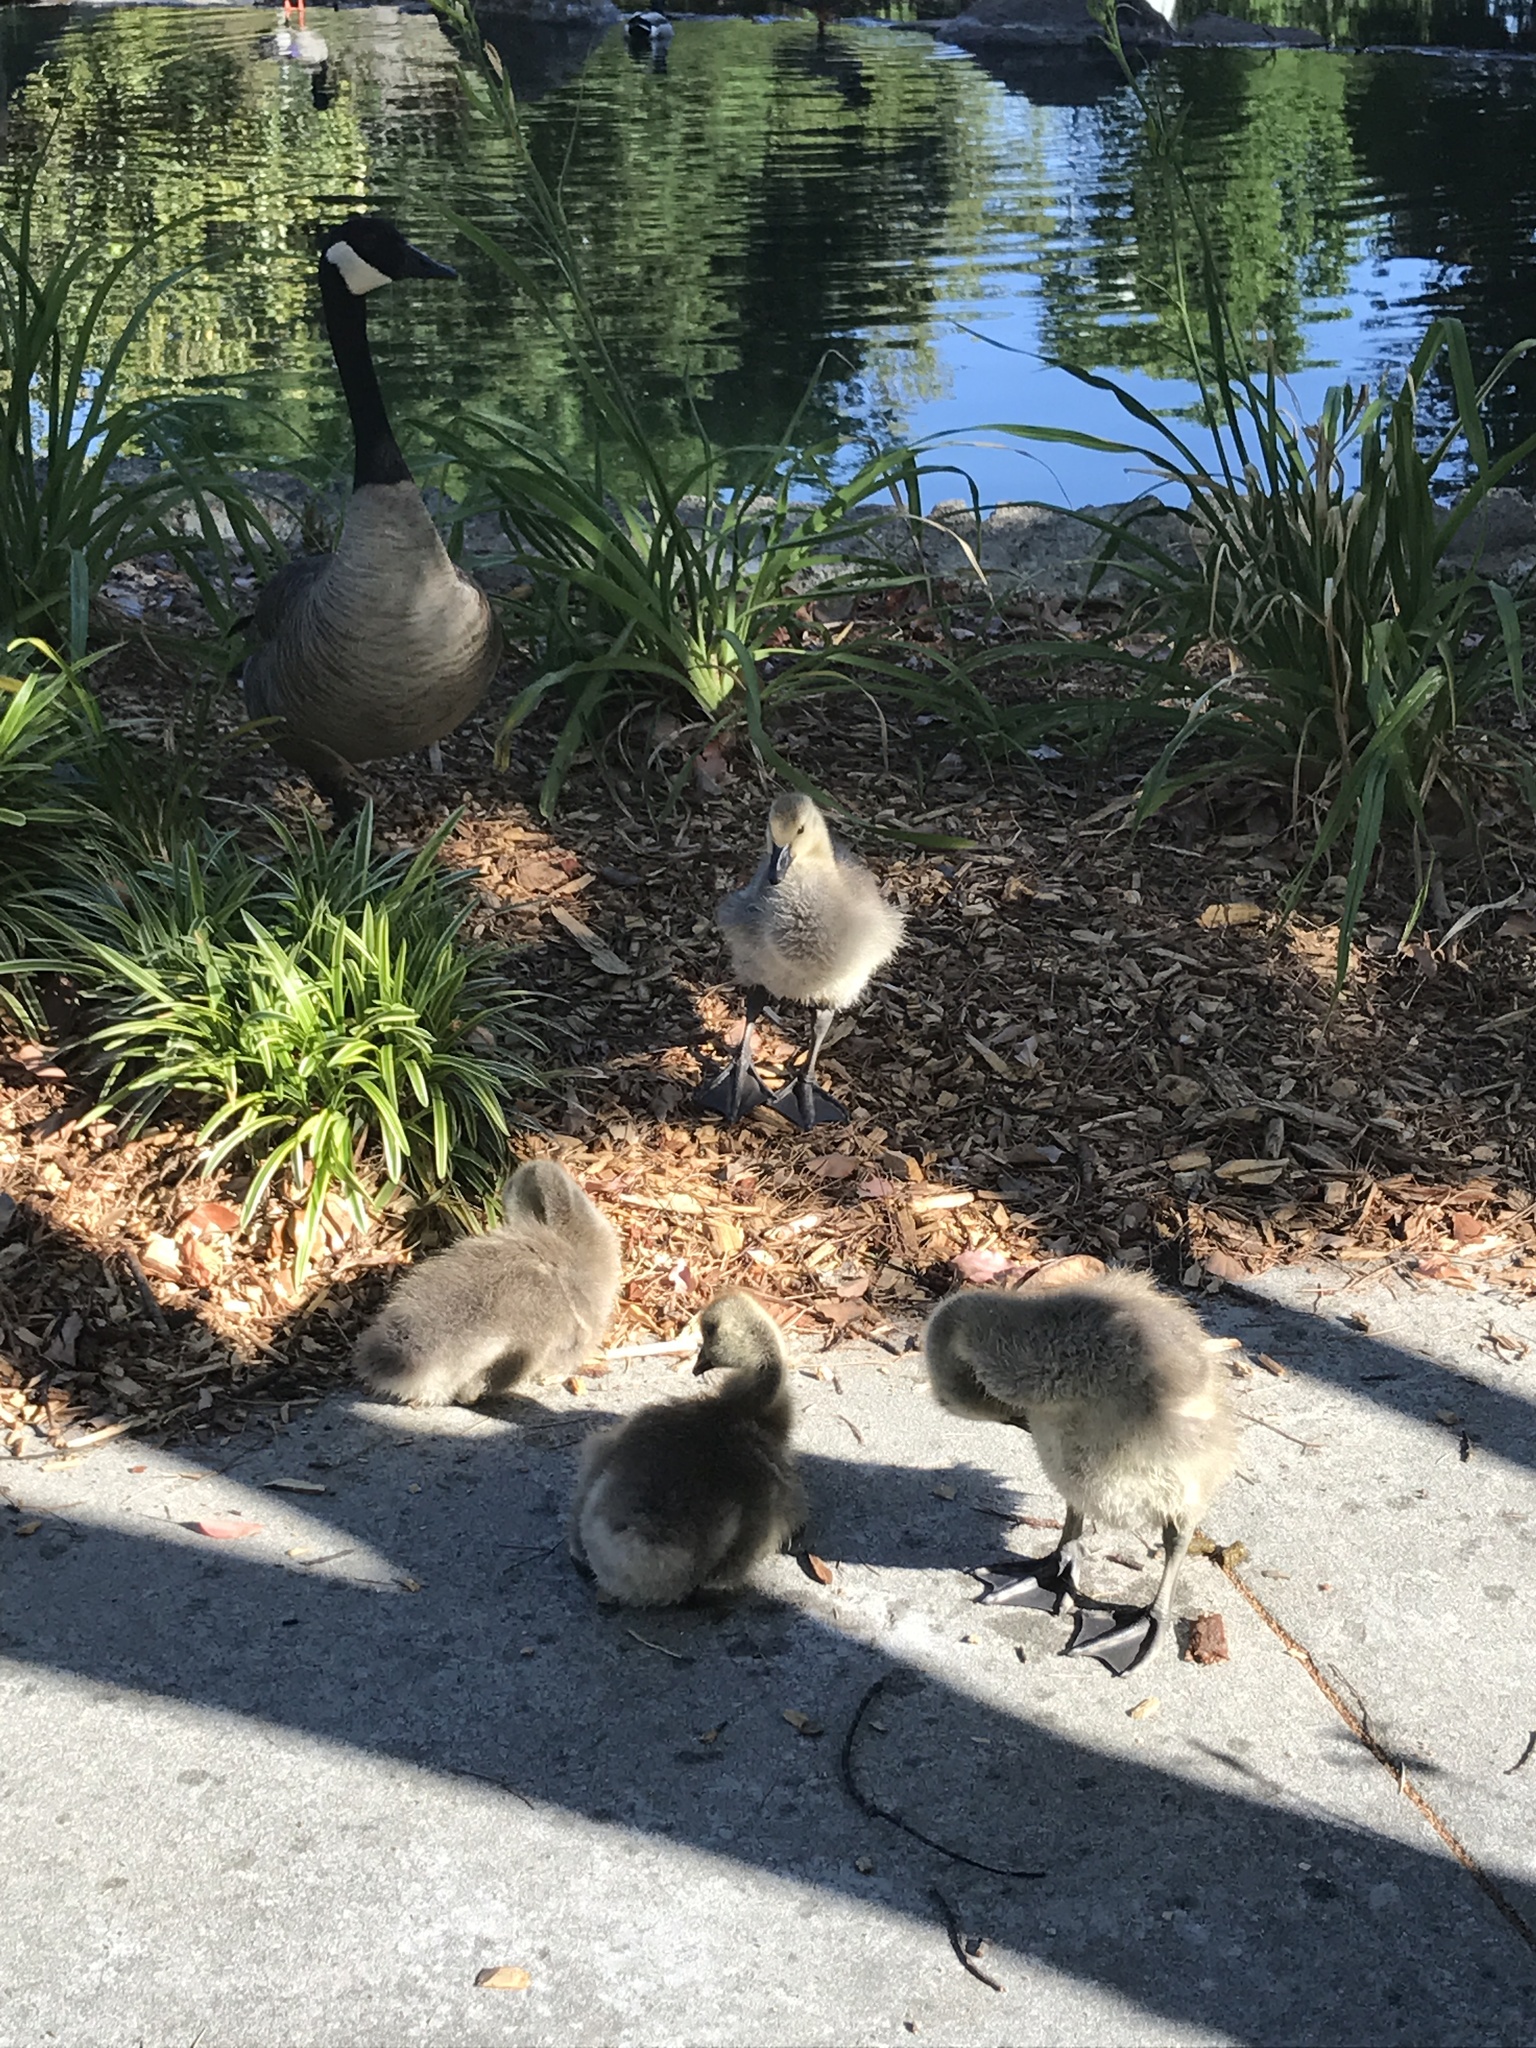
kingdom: Animalia
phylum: Chordata
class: Aves
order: Anseriformes
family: Anatidae
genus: Branta
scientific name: Branta canadensis
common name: Canada goose
